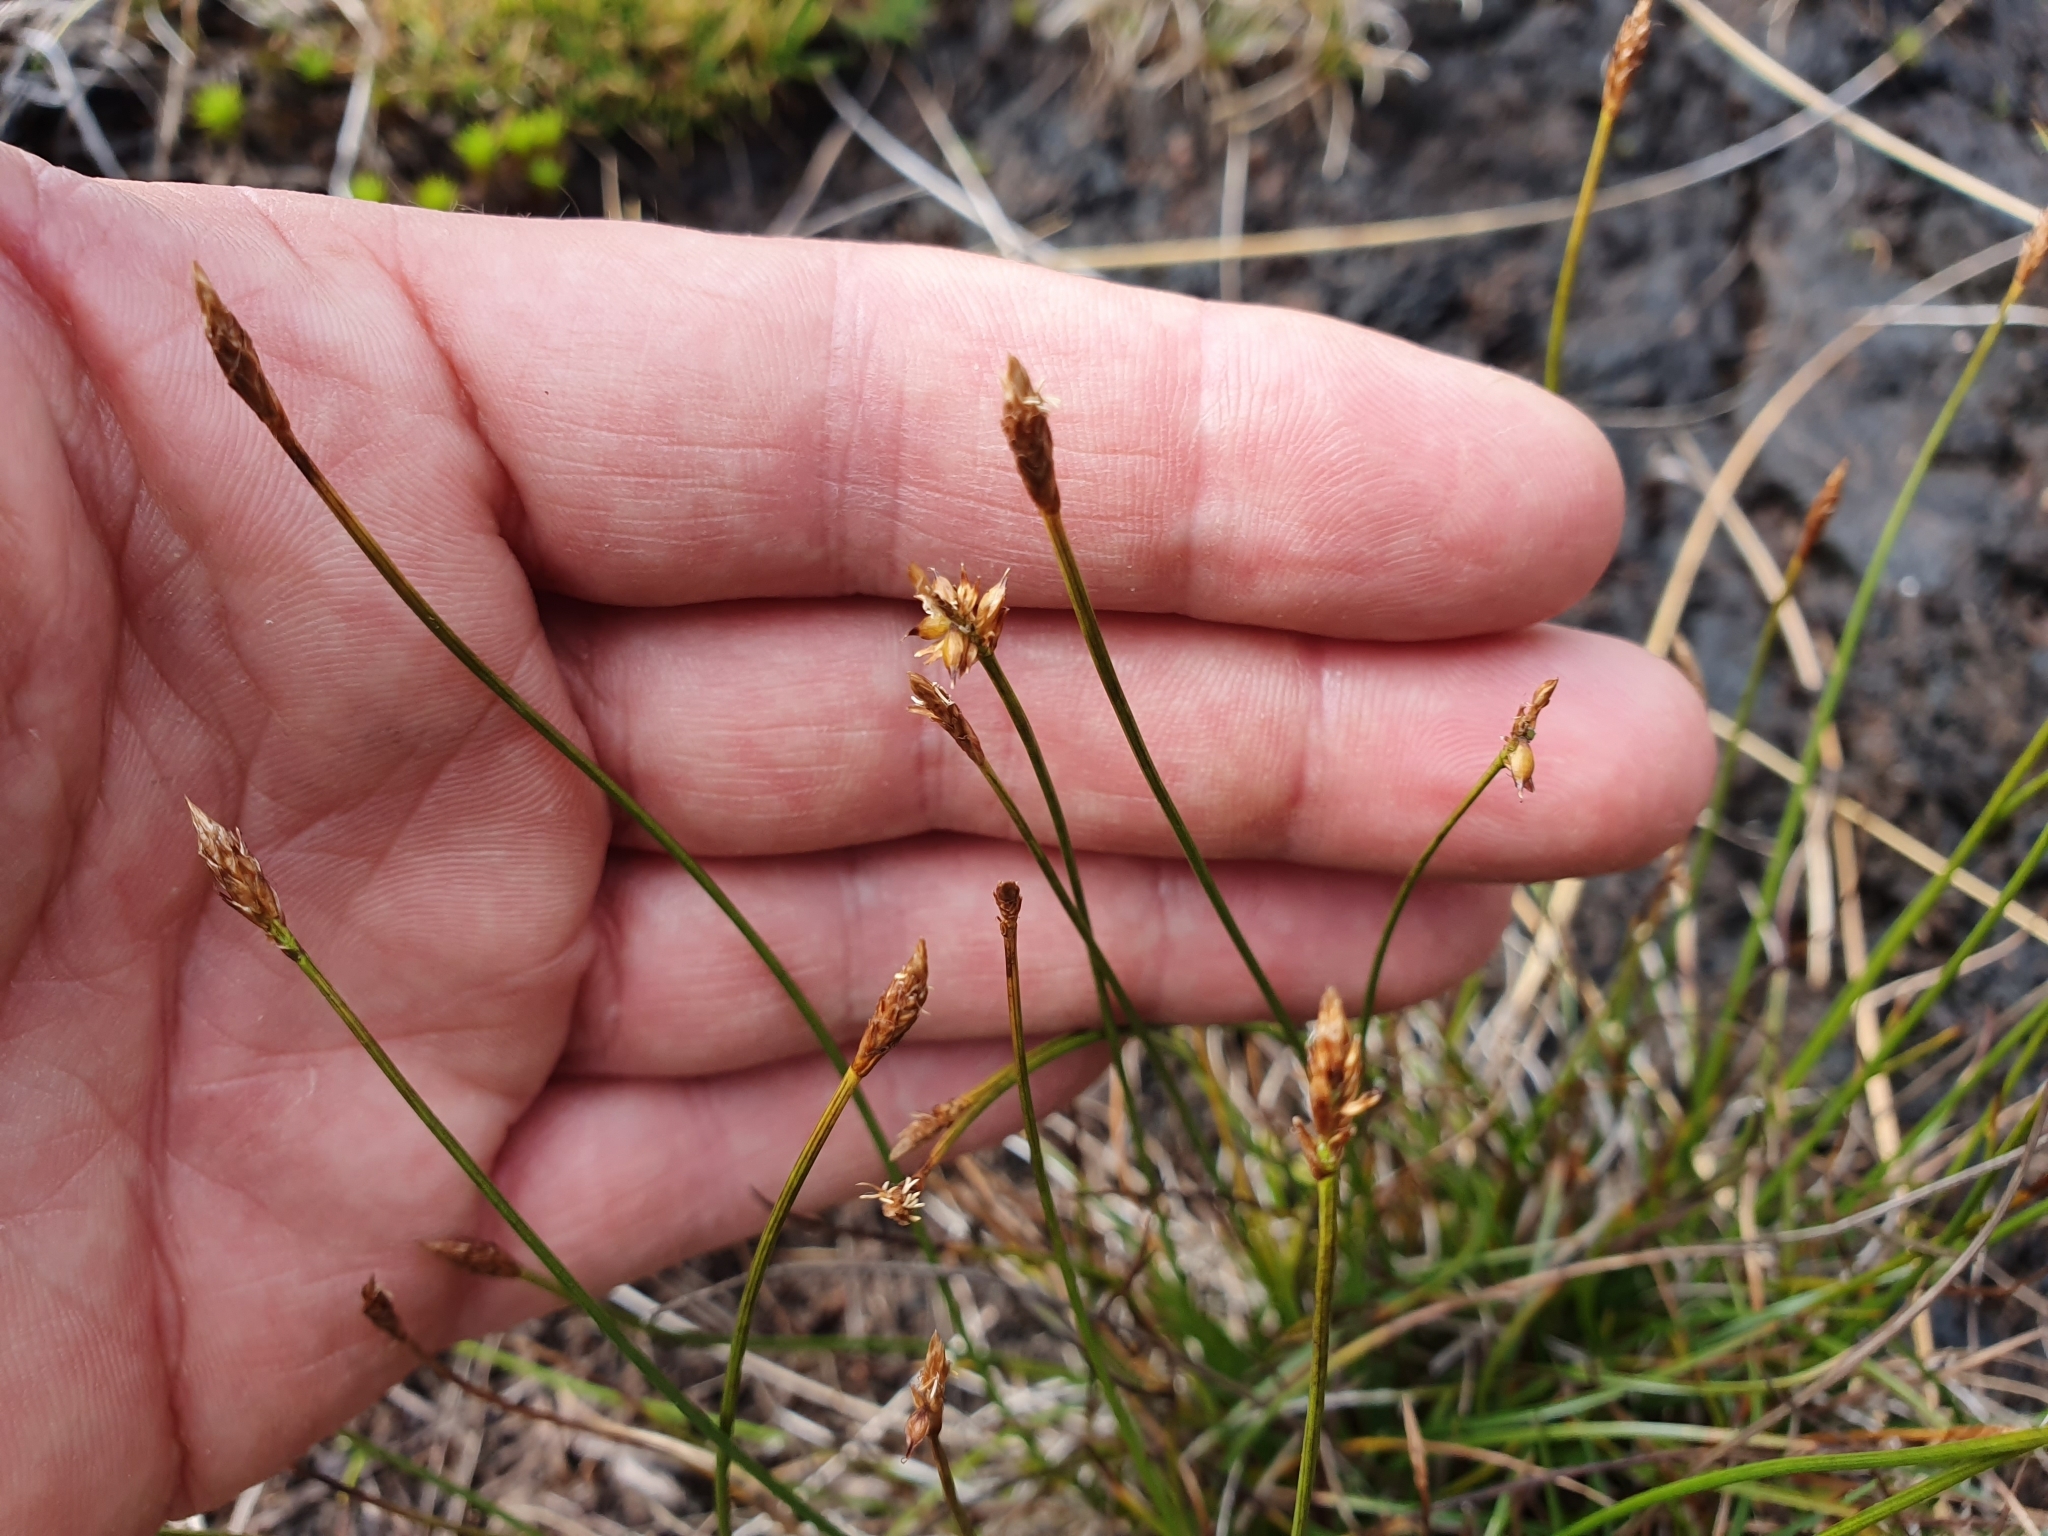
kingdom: Plantae
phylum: Tracheophyta
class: Liliopsida
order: Poales
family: Cyperaceae
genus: Carex
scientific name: Carex pyrenaica
